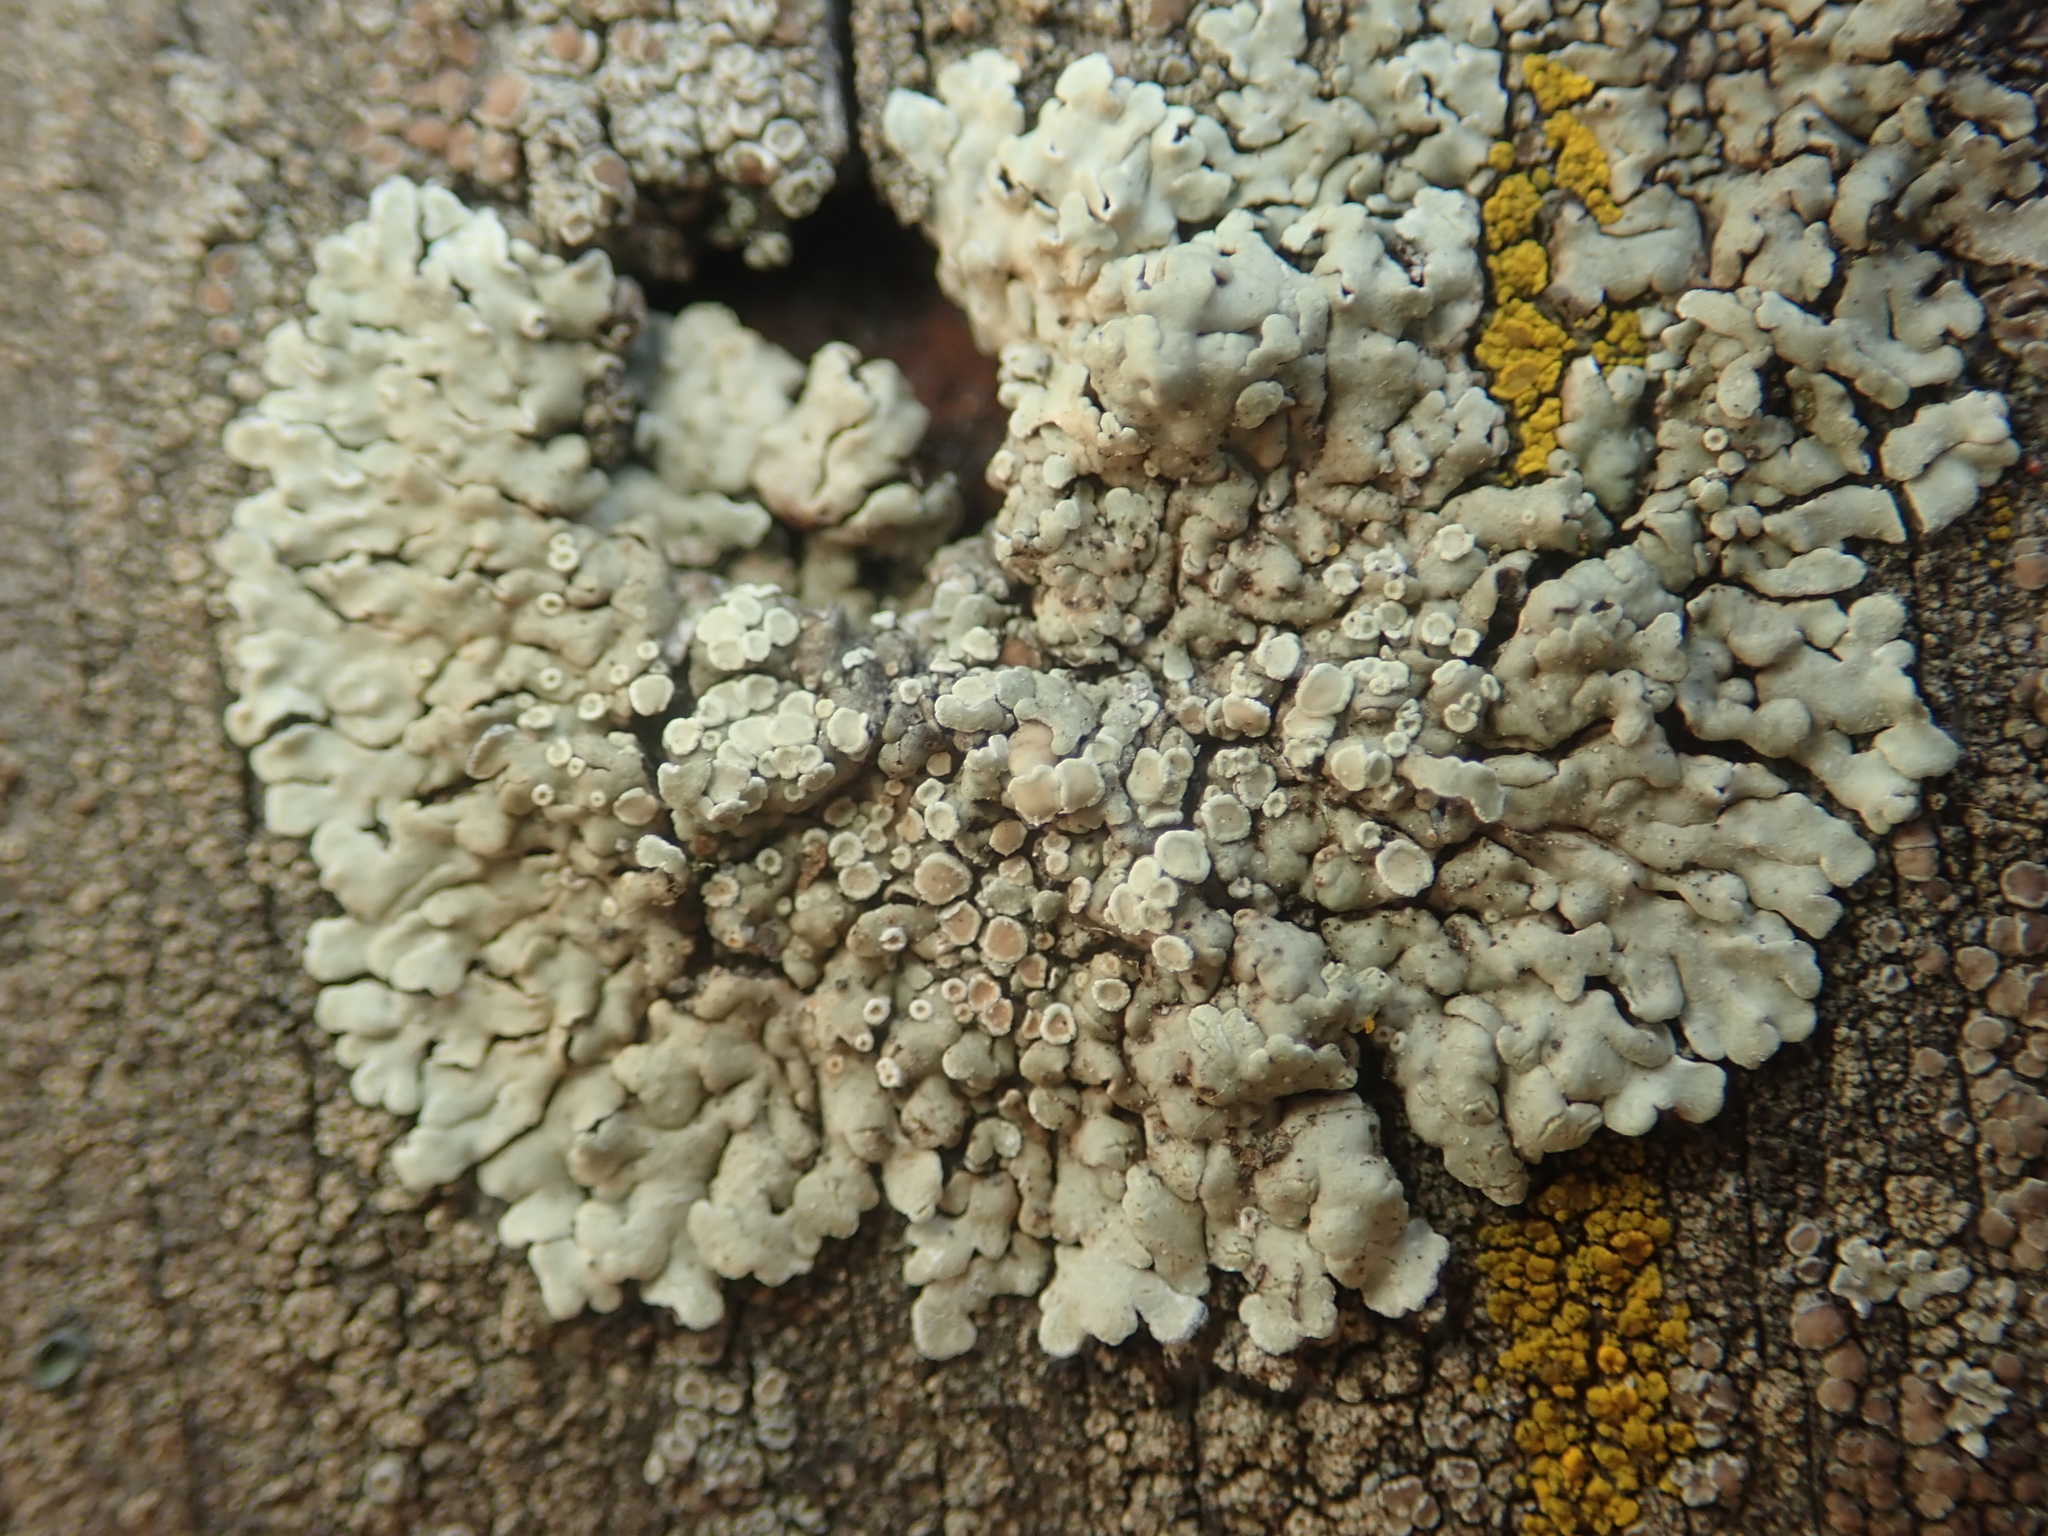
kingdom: Fungi
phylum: Ascomycota
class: Lecanoromycetes
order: Lecanorales
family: Lecanoraceae
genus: Protoparmeliopsis
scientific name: Protoparmeliopsis muralis
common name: Stonewall rim lichen
